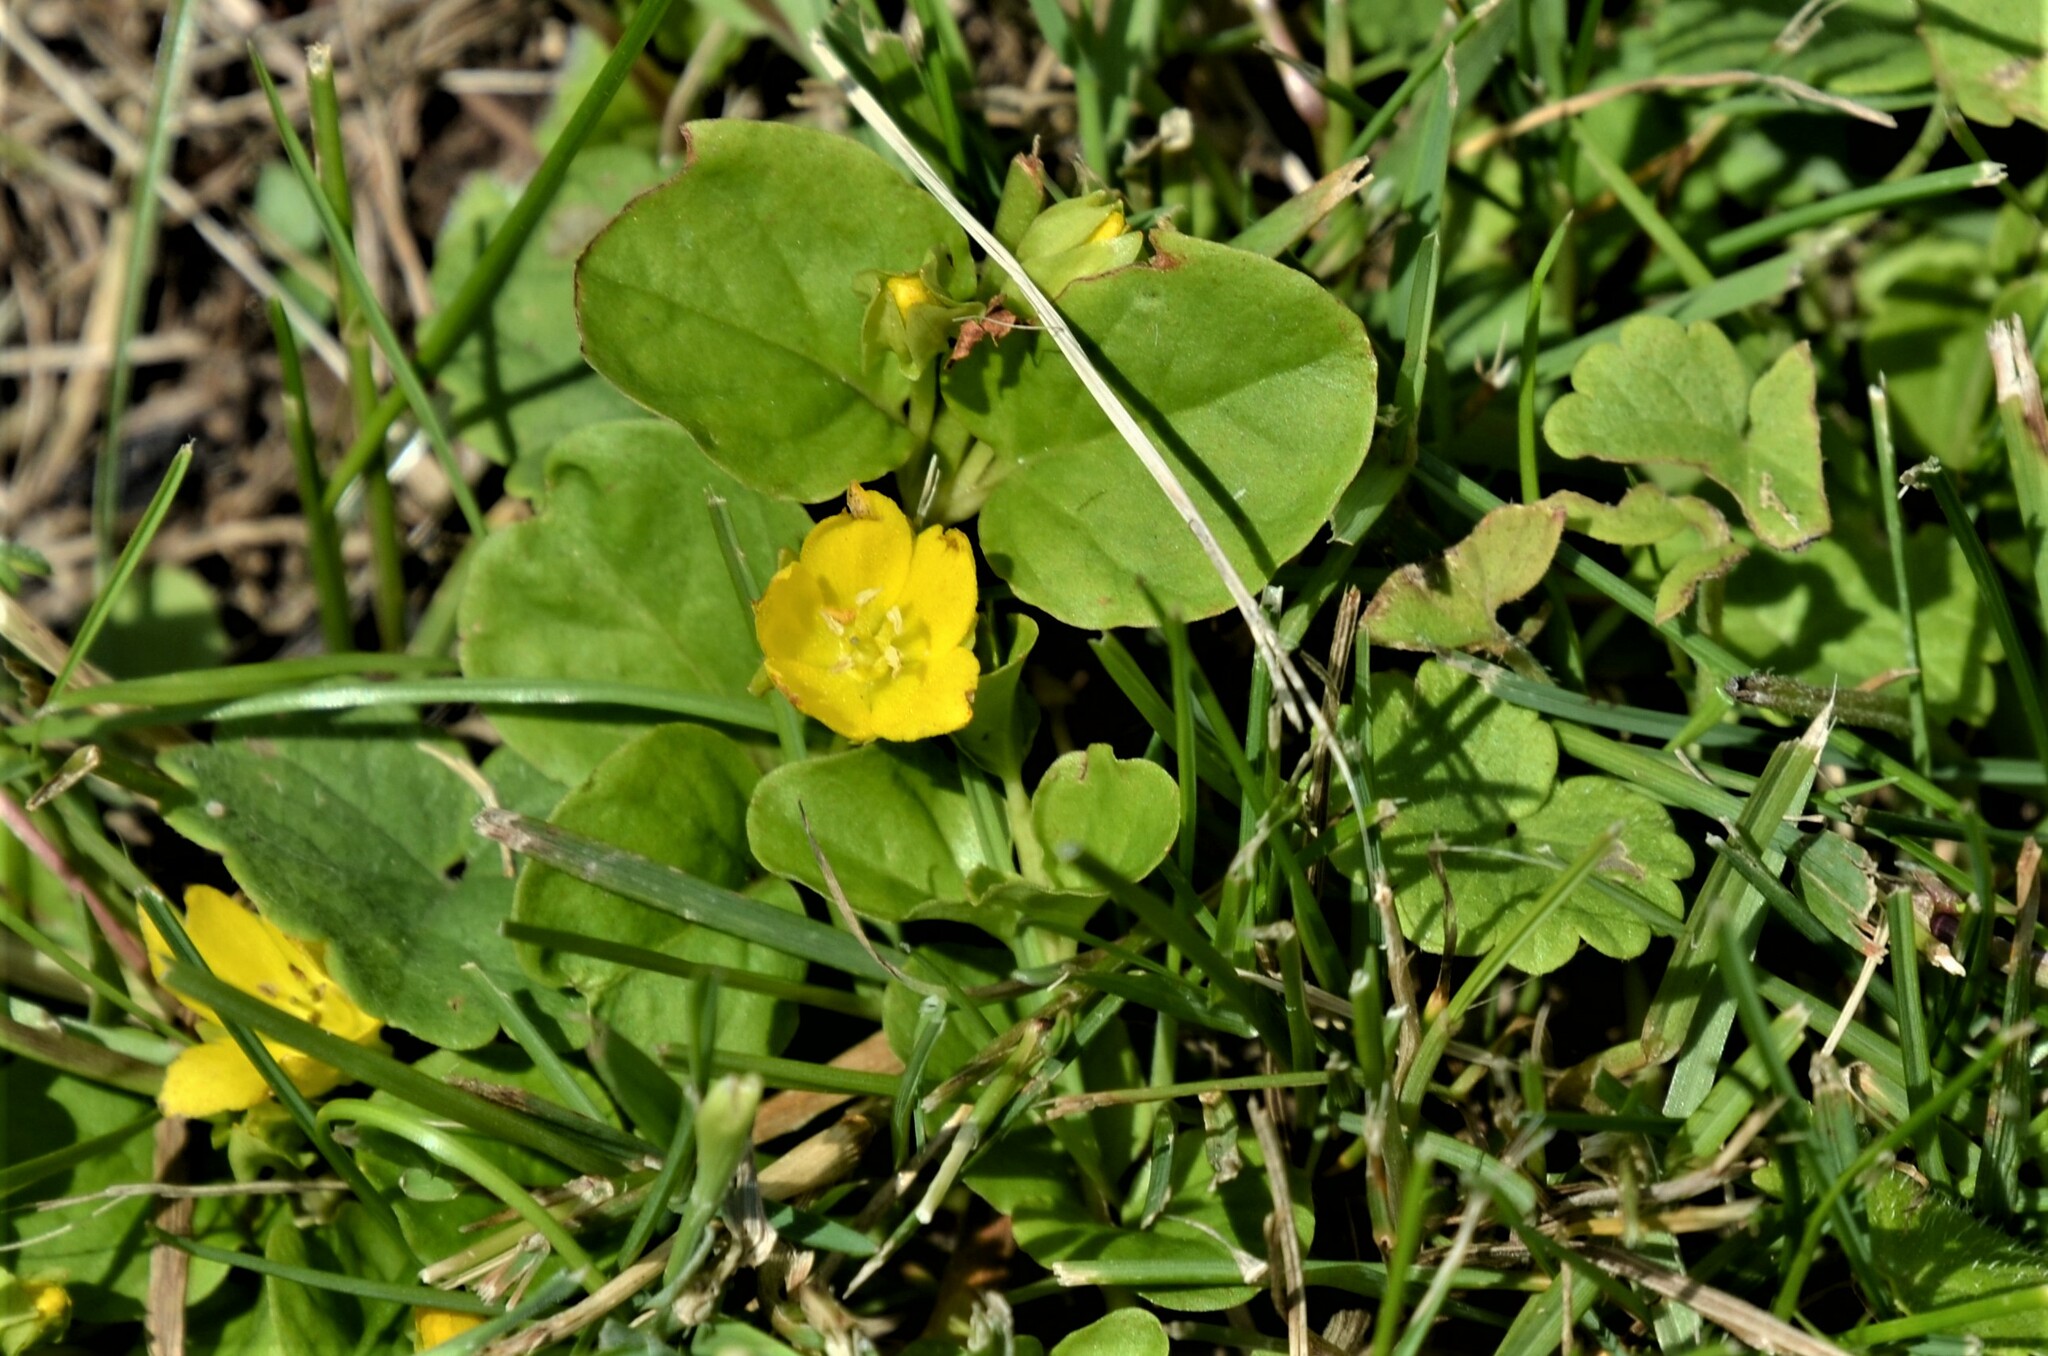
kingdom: Plantae
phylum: Tracheophyta
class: Magnoliopsida
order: Ericales
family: Primulaceae
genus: Lysimachia
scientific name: Lysimachia nummularia
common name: Moneywort
